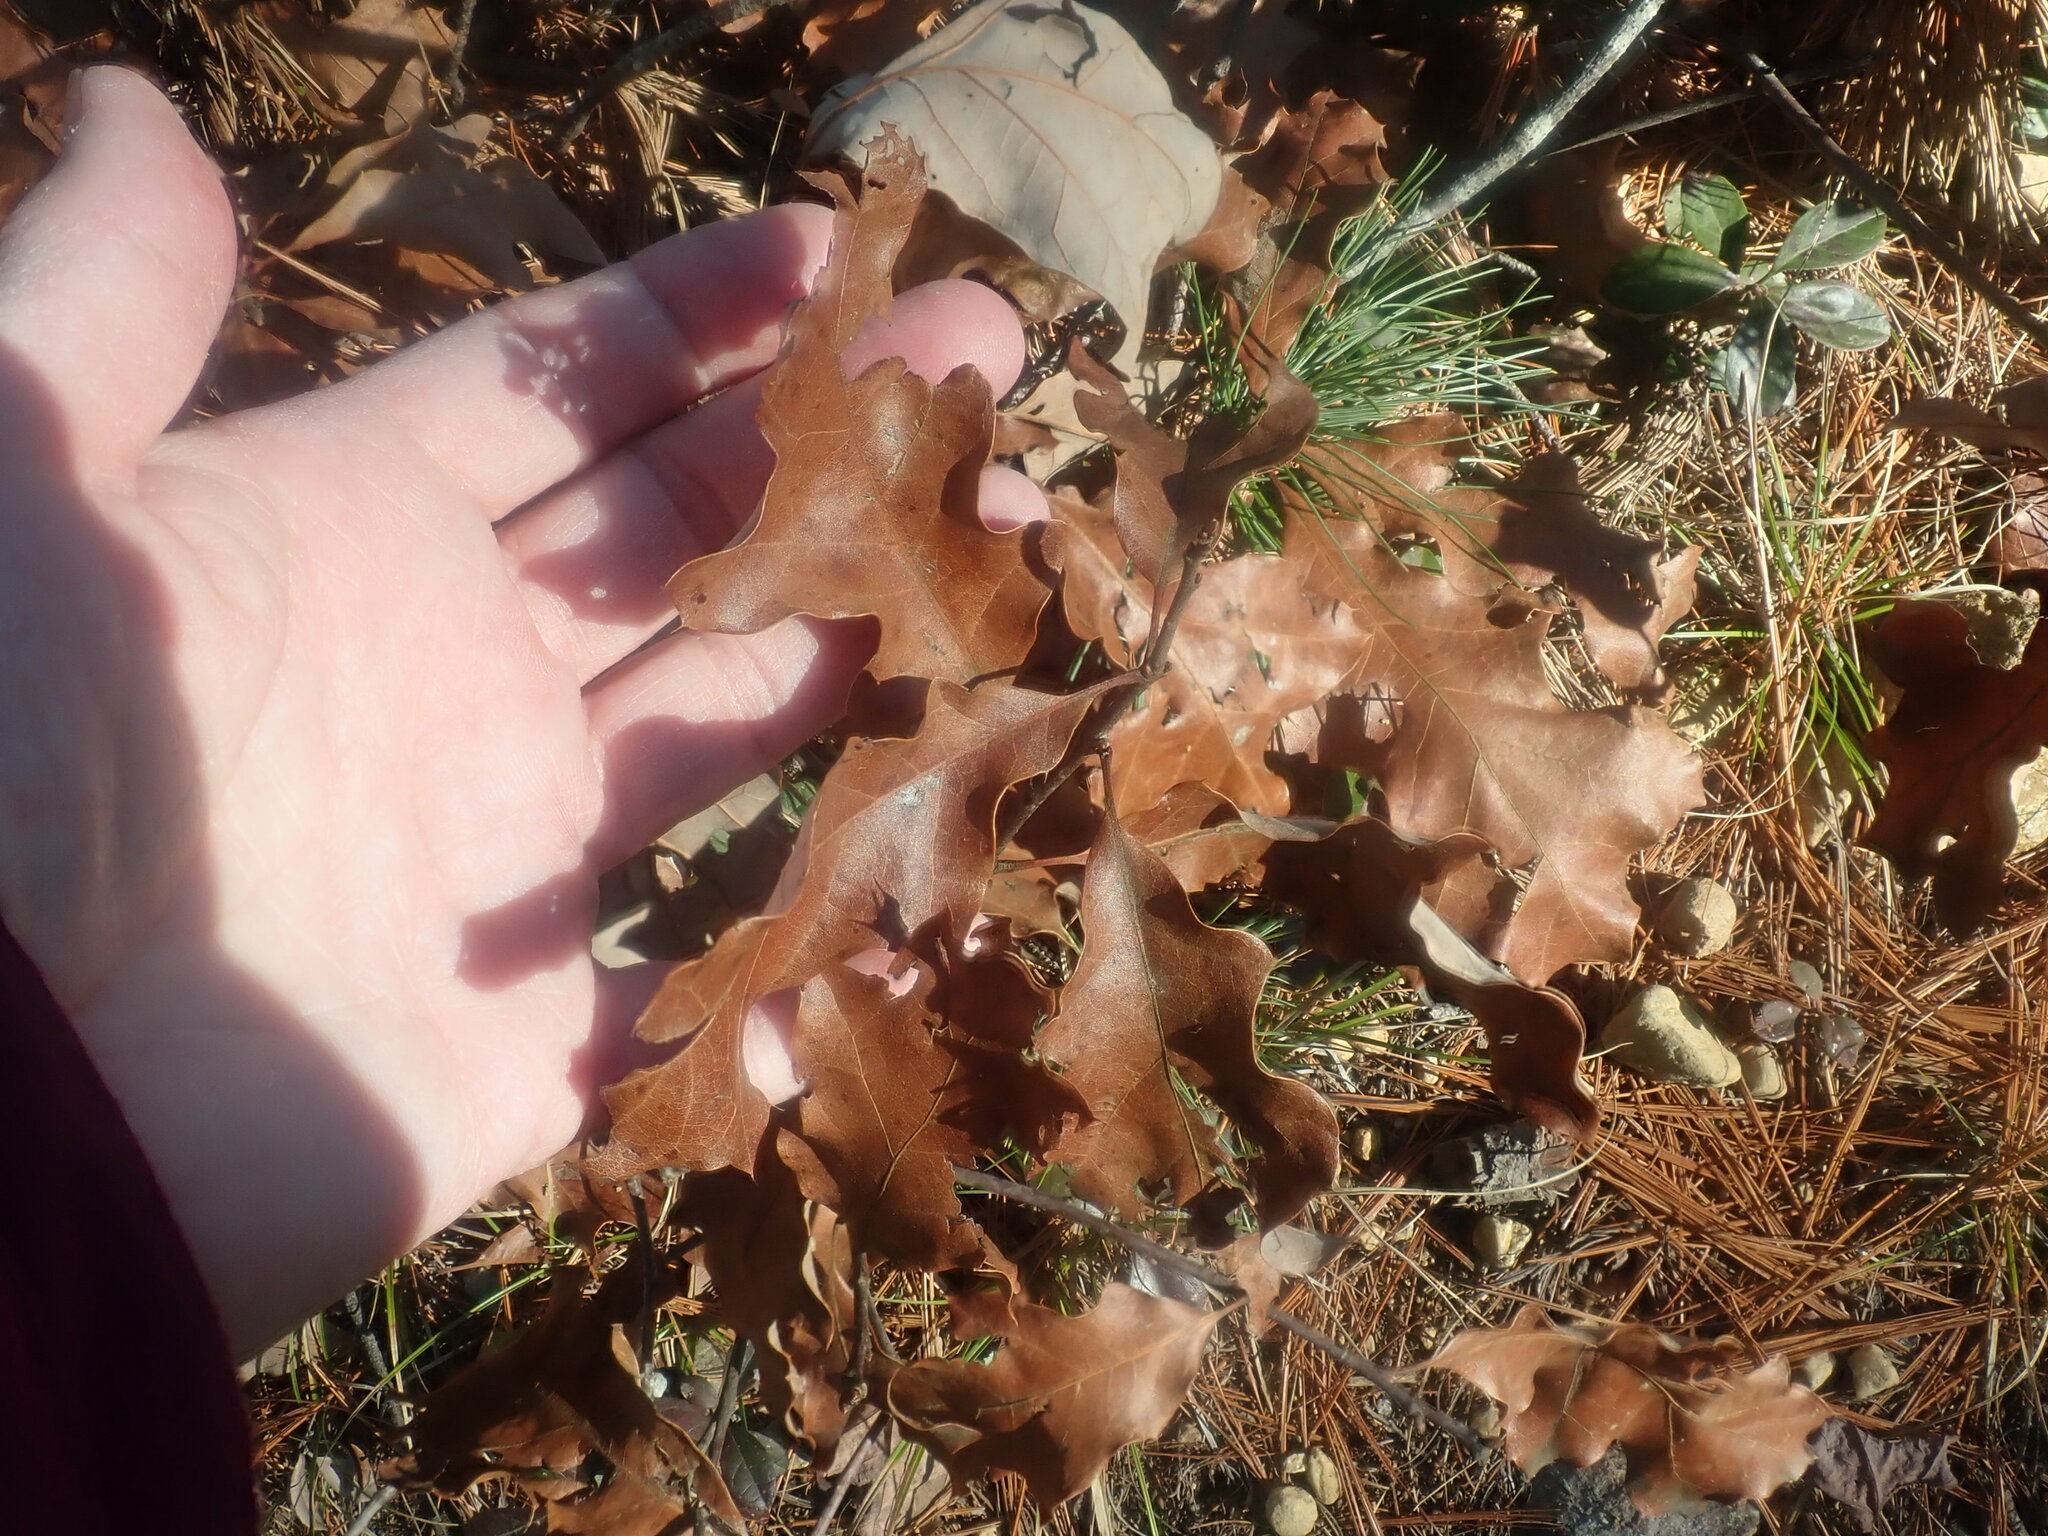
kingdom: Plantae
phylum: Tracheophyta
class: Magnoliopsida
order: Fagales
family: Fagaceae
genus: Quercus
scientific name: Quercus ilicifolia
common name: Bear oak
